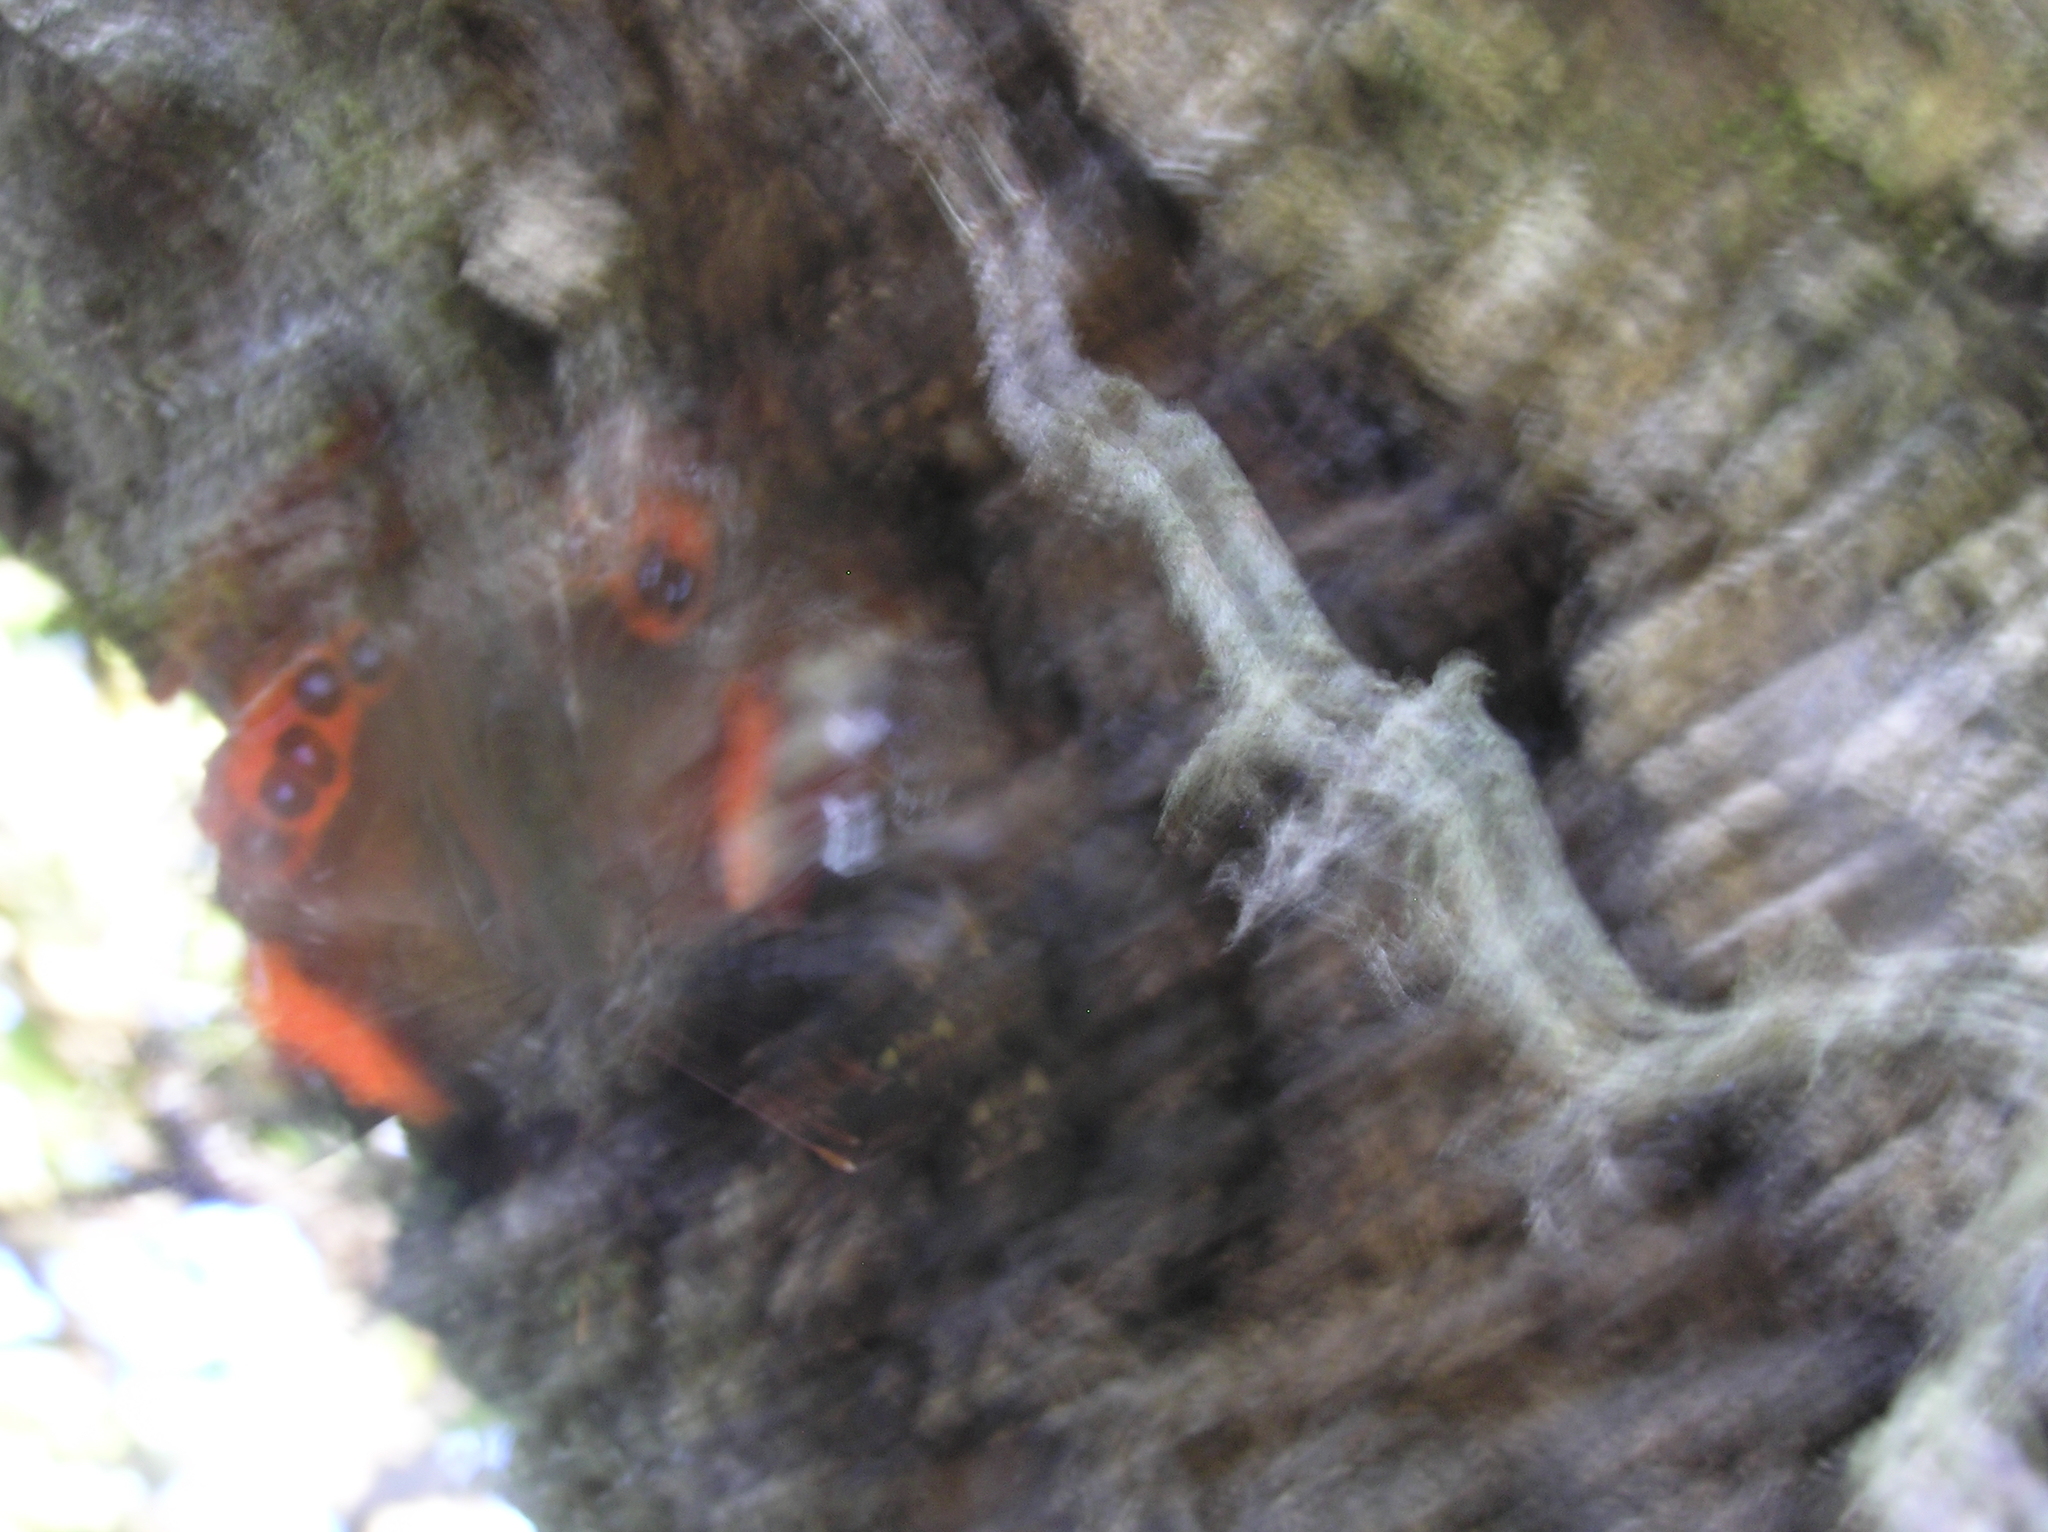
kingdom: Animalia
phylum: Arthropoda
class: Insecta
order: Lepidoptera
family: Nymphalidae
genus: Vanessa
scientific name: Vanessa gonerilla
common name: New zealand red admiral
